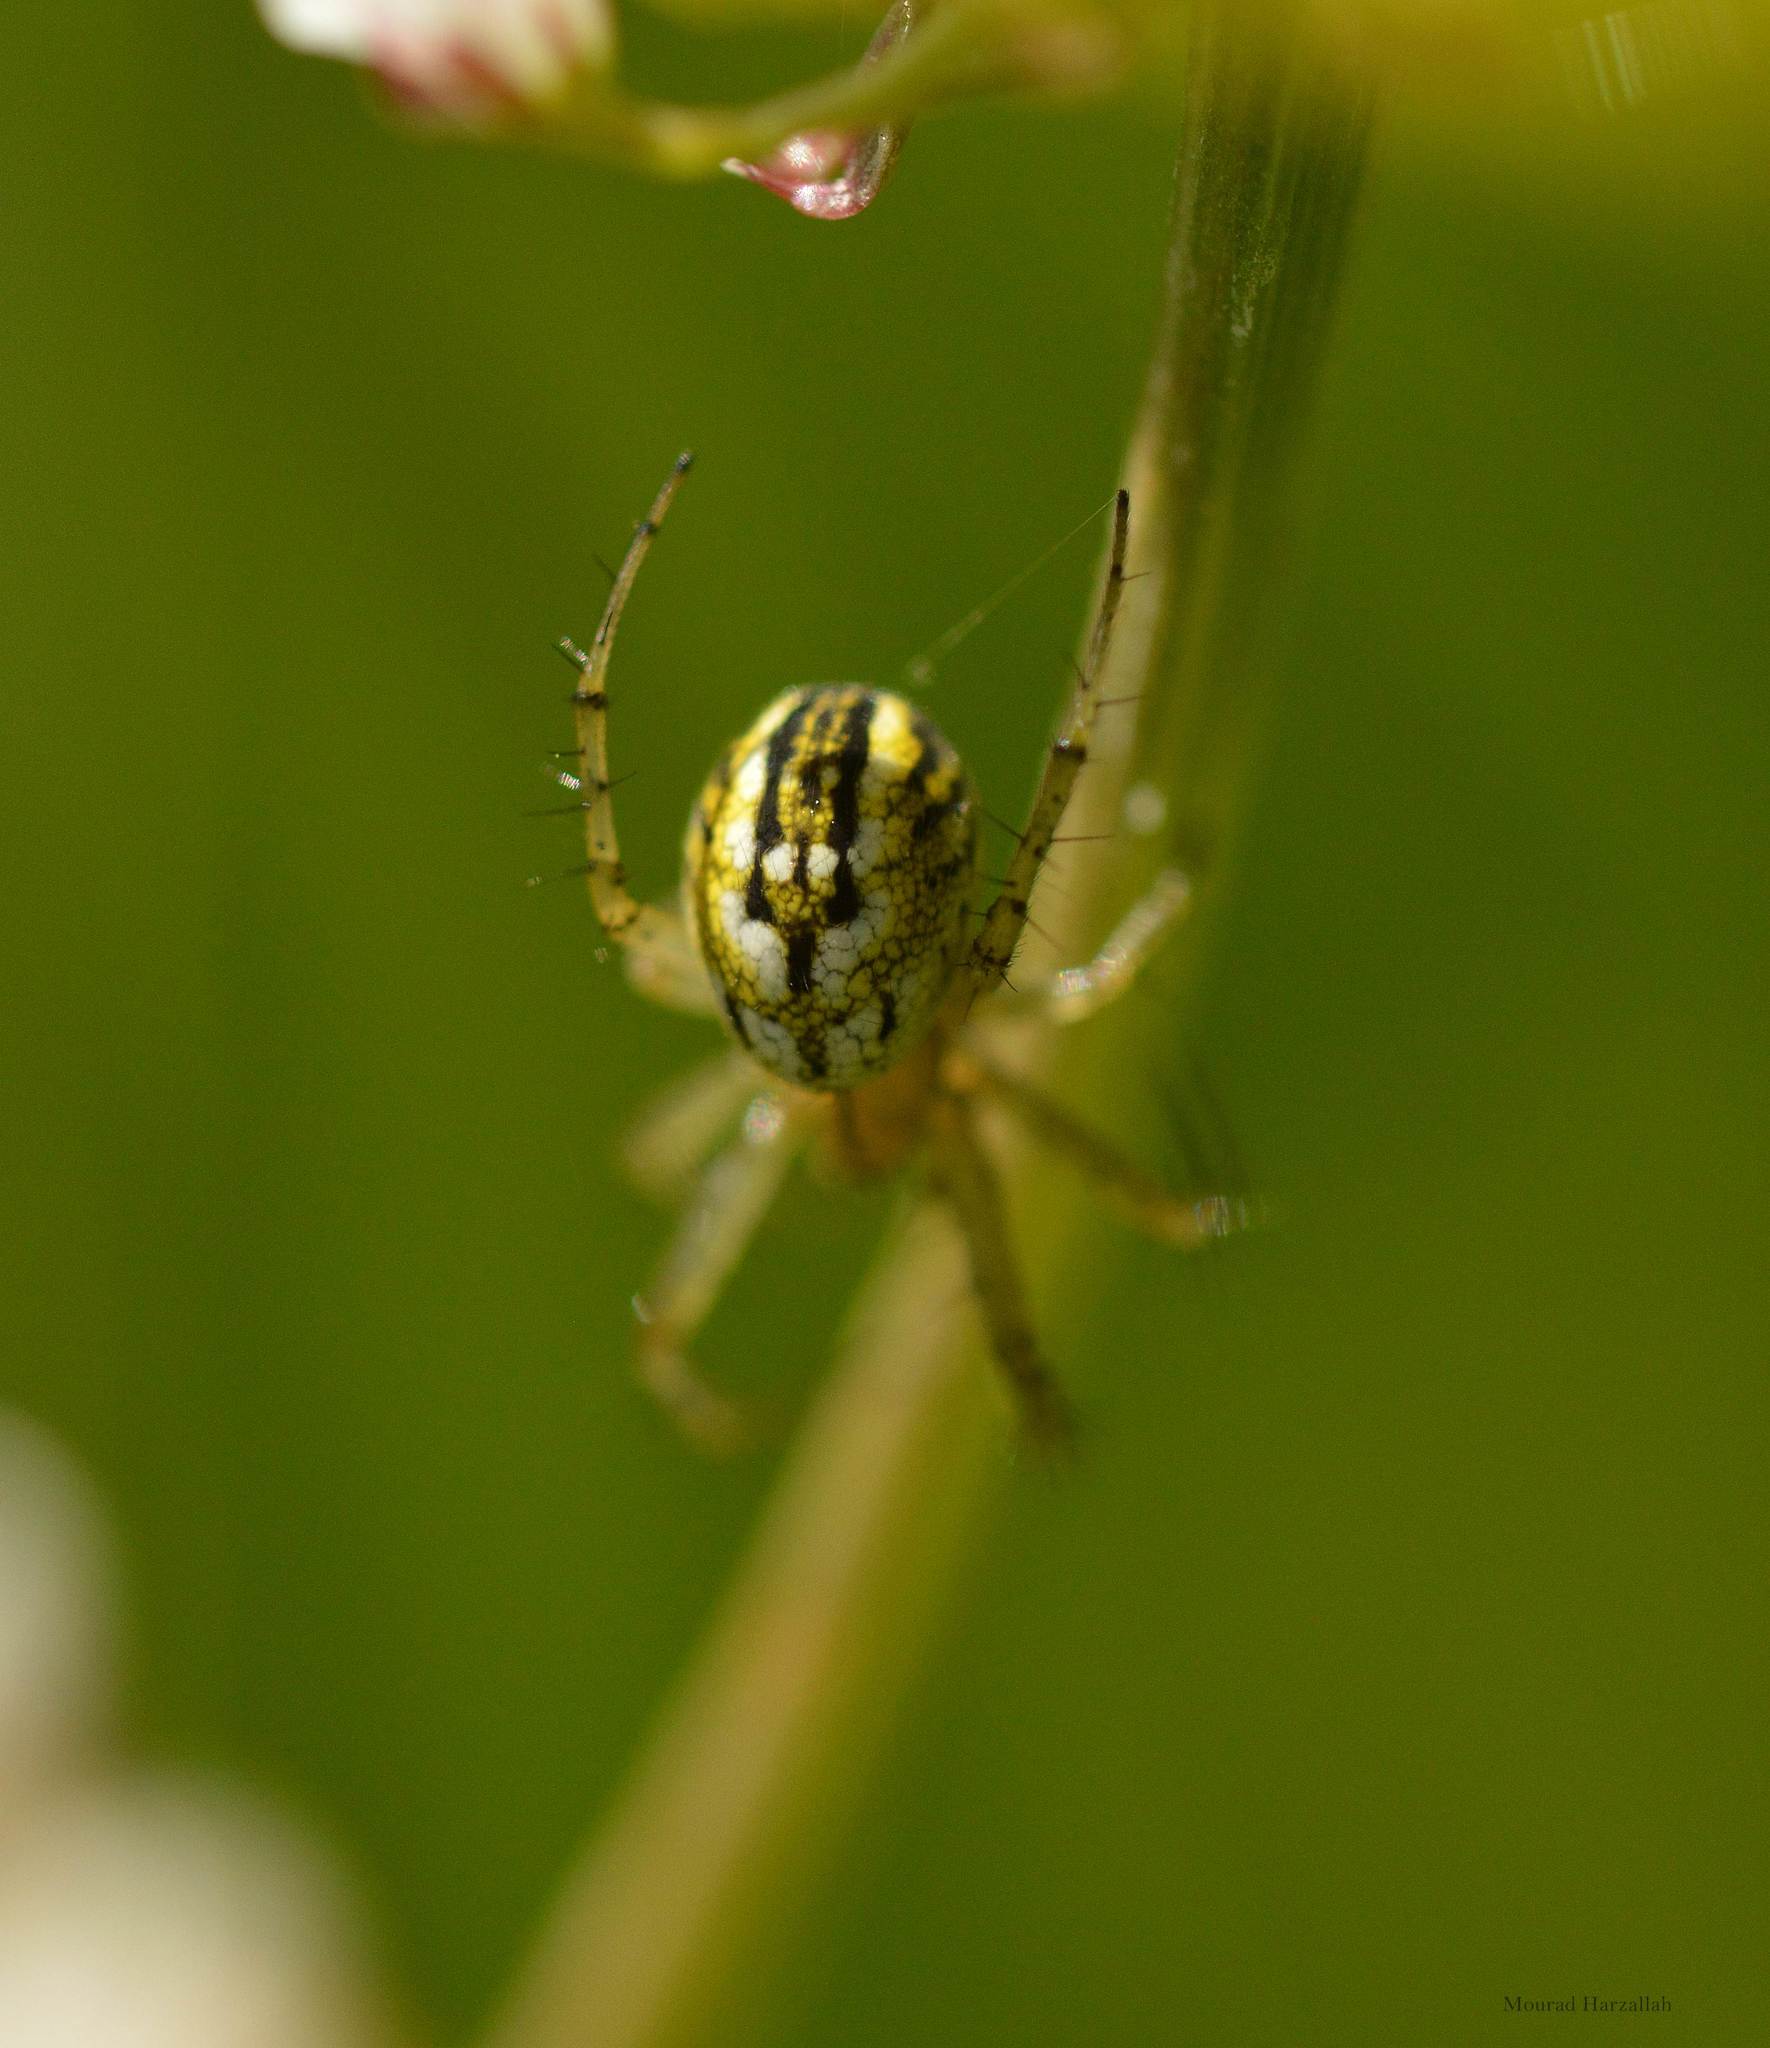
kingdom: Animalia
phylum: Arthropoda
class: Arachnida
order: Araneae
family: Araneidae
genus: Mangora
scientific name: Mangora acalypha
